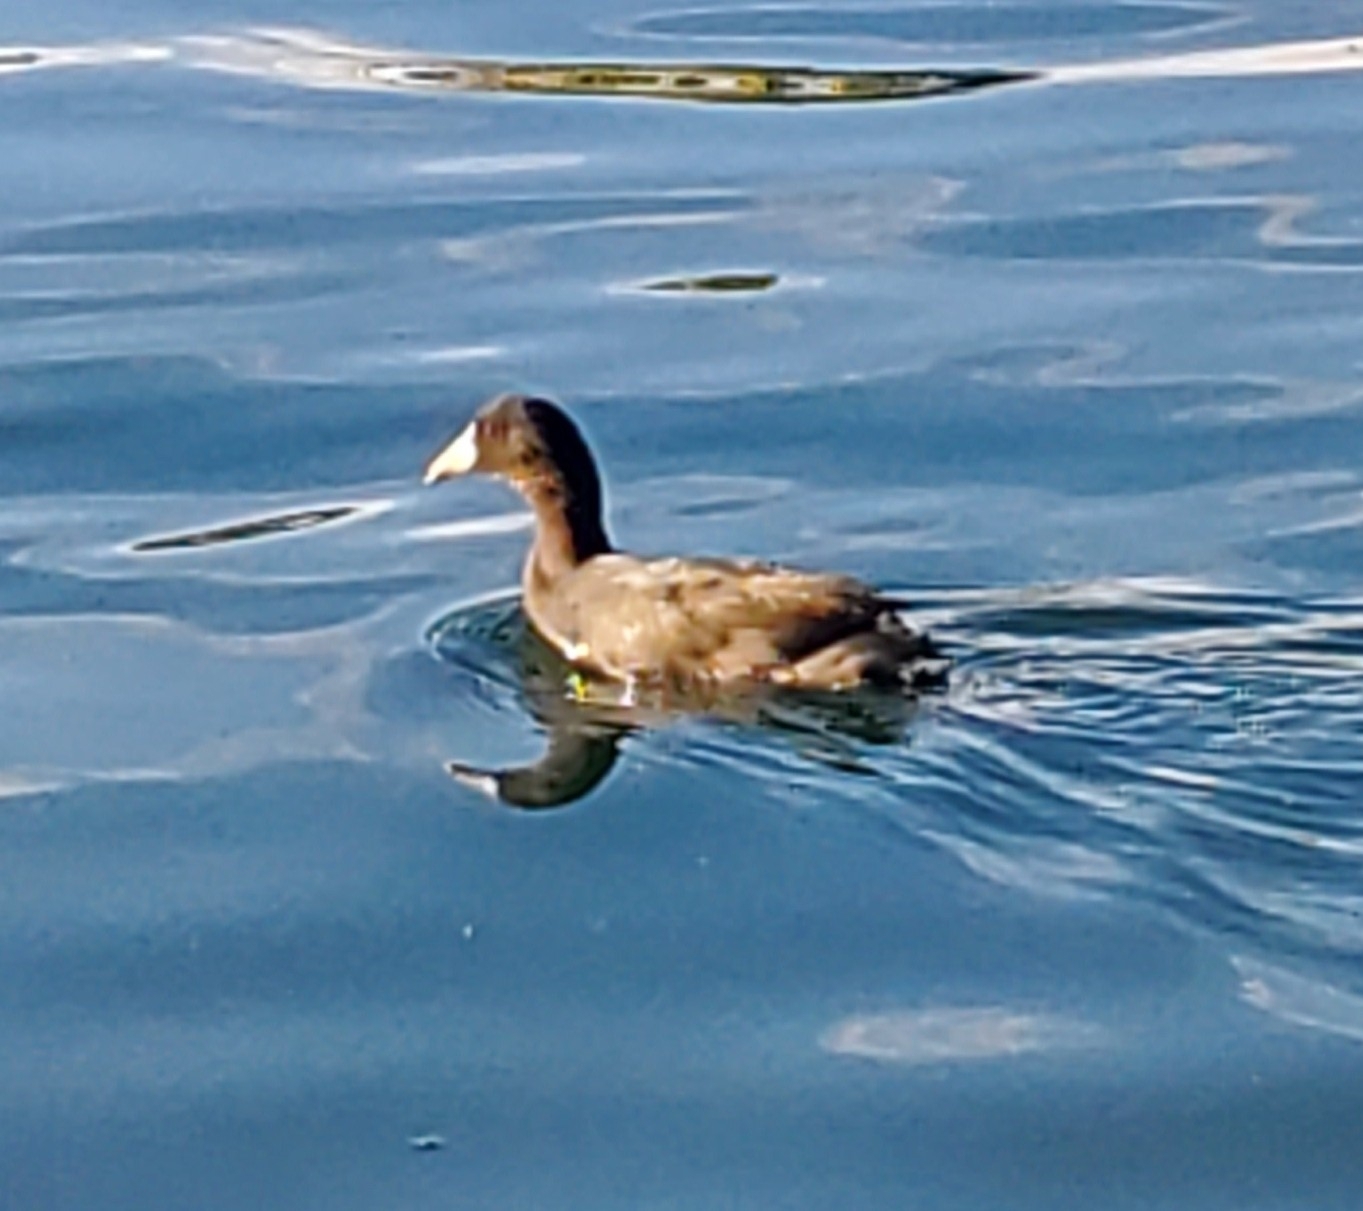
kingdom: Animalia
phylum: Chordata
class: Aves
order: Gruiformes
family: Rallidae
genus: Fulica
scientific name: Fulica americana
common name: American coot
